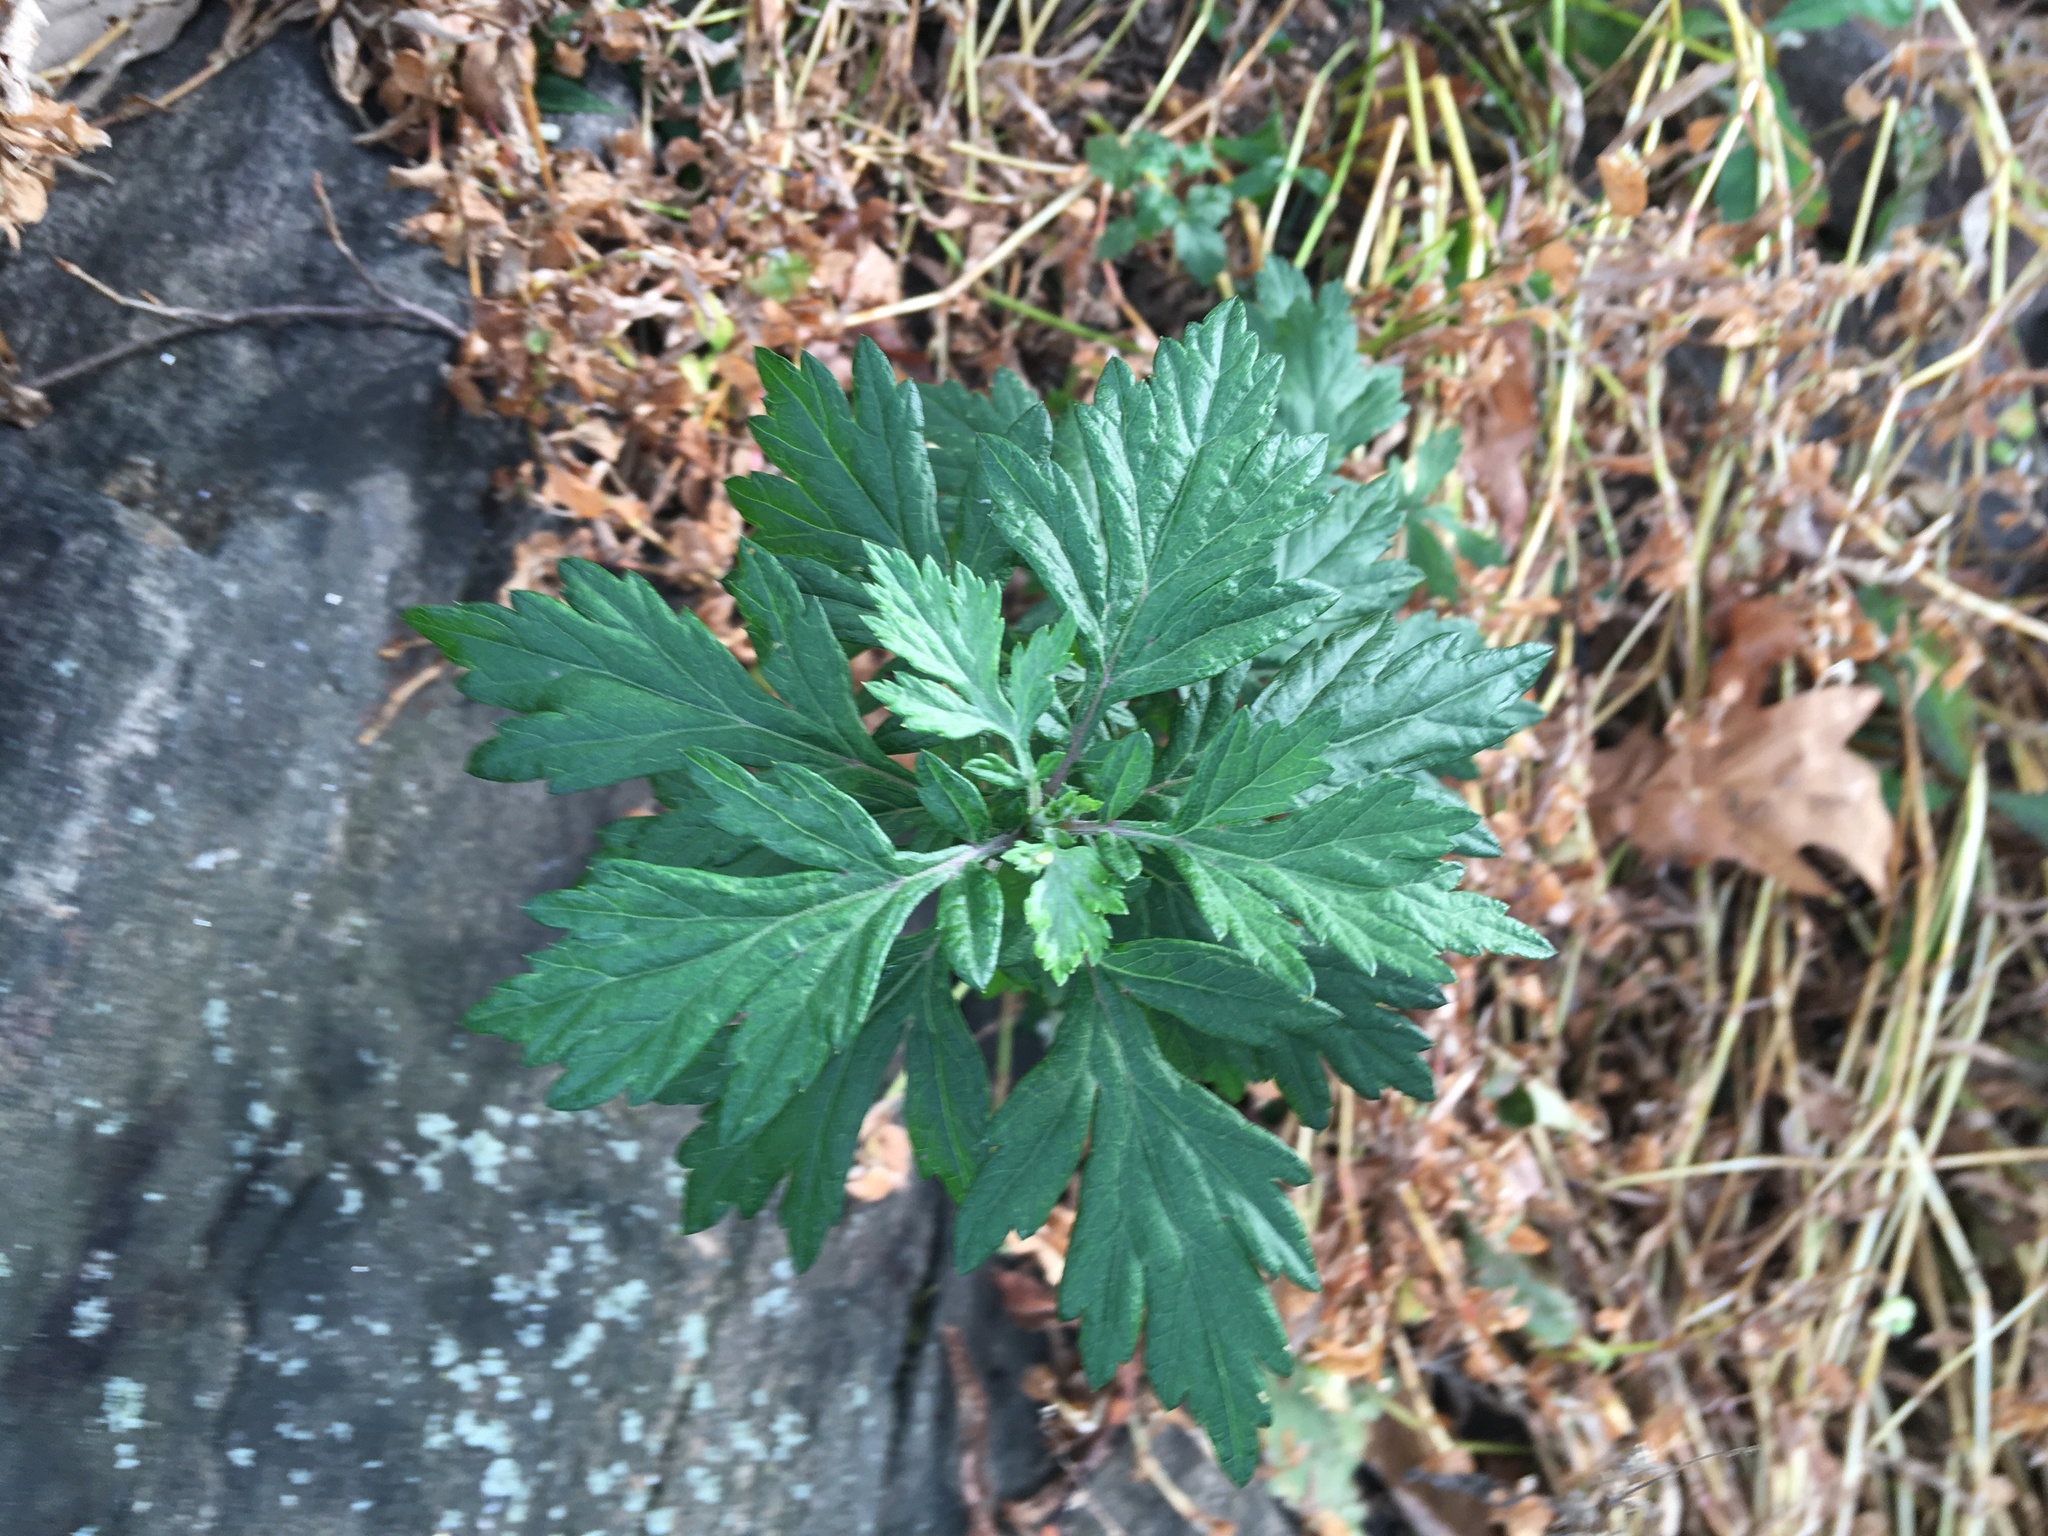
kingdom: Plantae
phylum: Tracheophyta
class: Magnoliopsida
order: Asterales
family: Asteraceae
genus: Artemisia
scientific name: Artemisia vulgaris
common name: Mugwort
